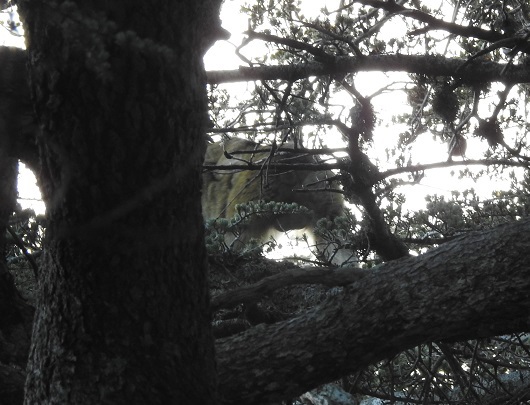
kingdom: Animalia
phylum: Chordata
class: Mammalia
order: Primates
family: Cercopithecidae
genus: Macaca
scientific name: Macaca sylvanus
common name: Barbary macaque
